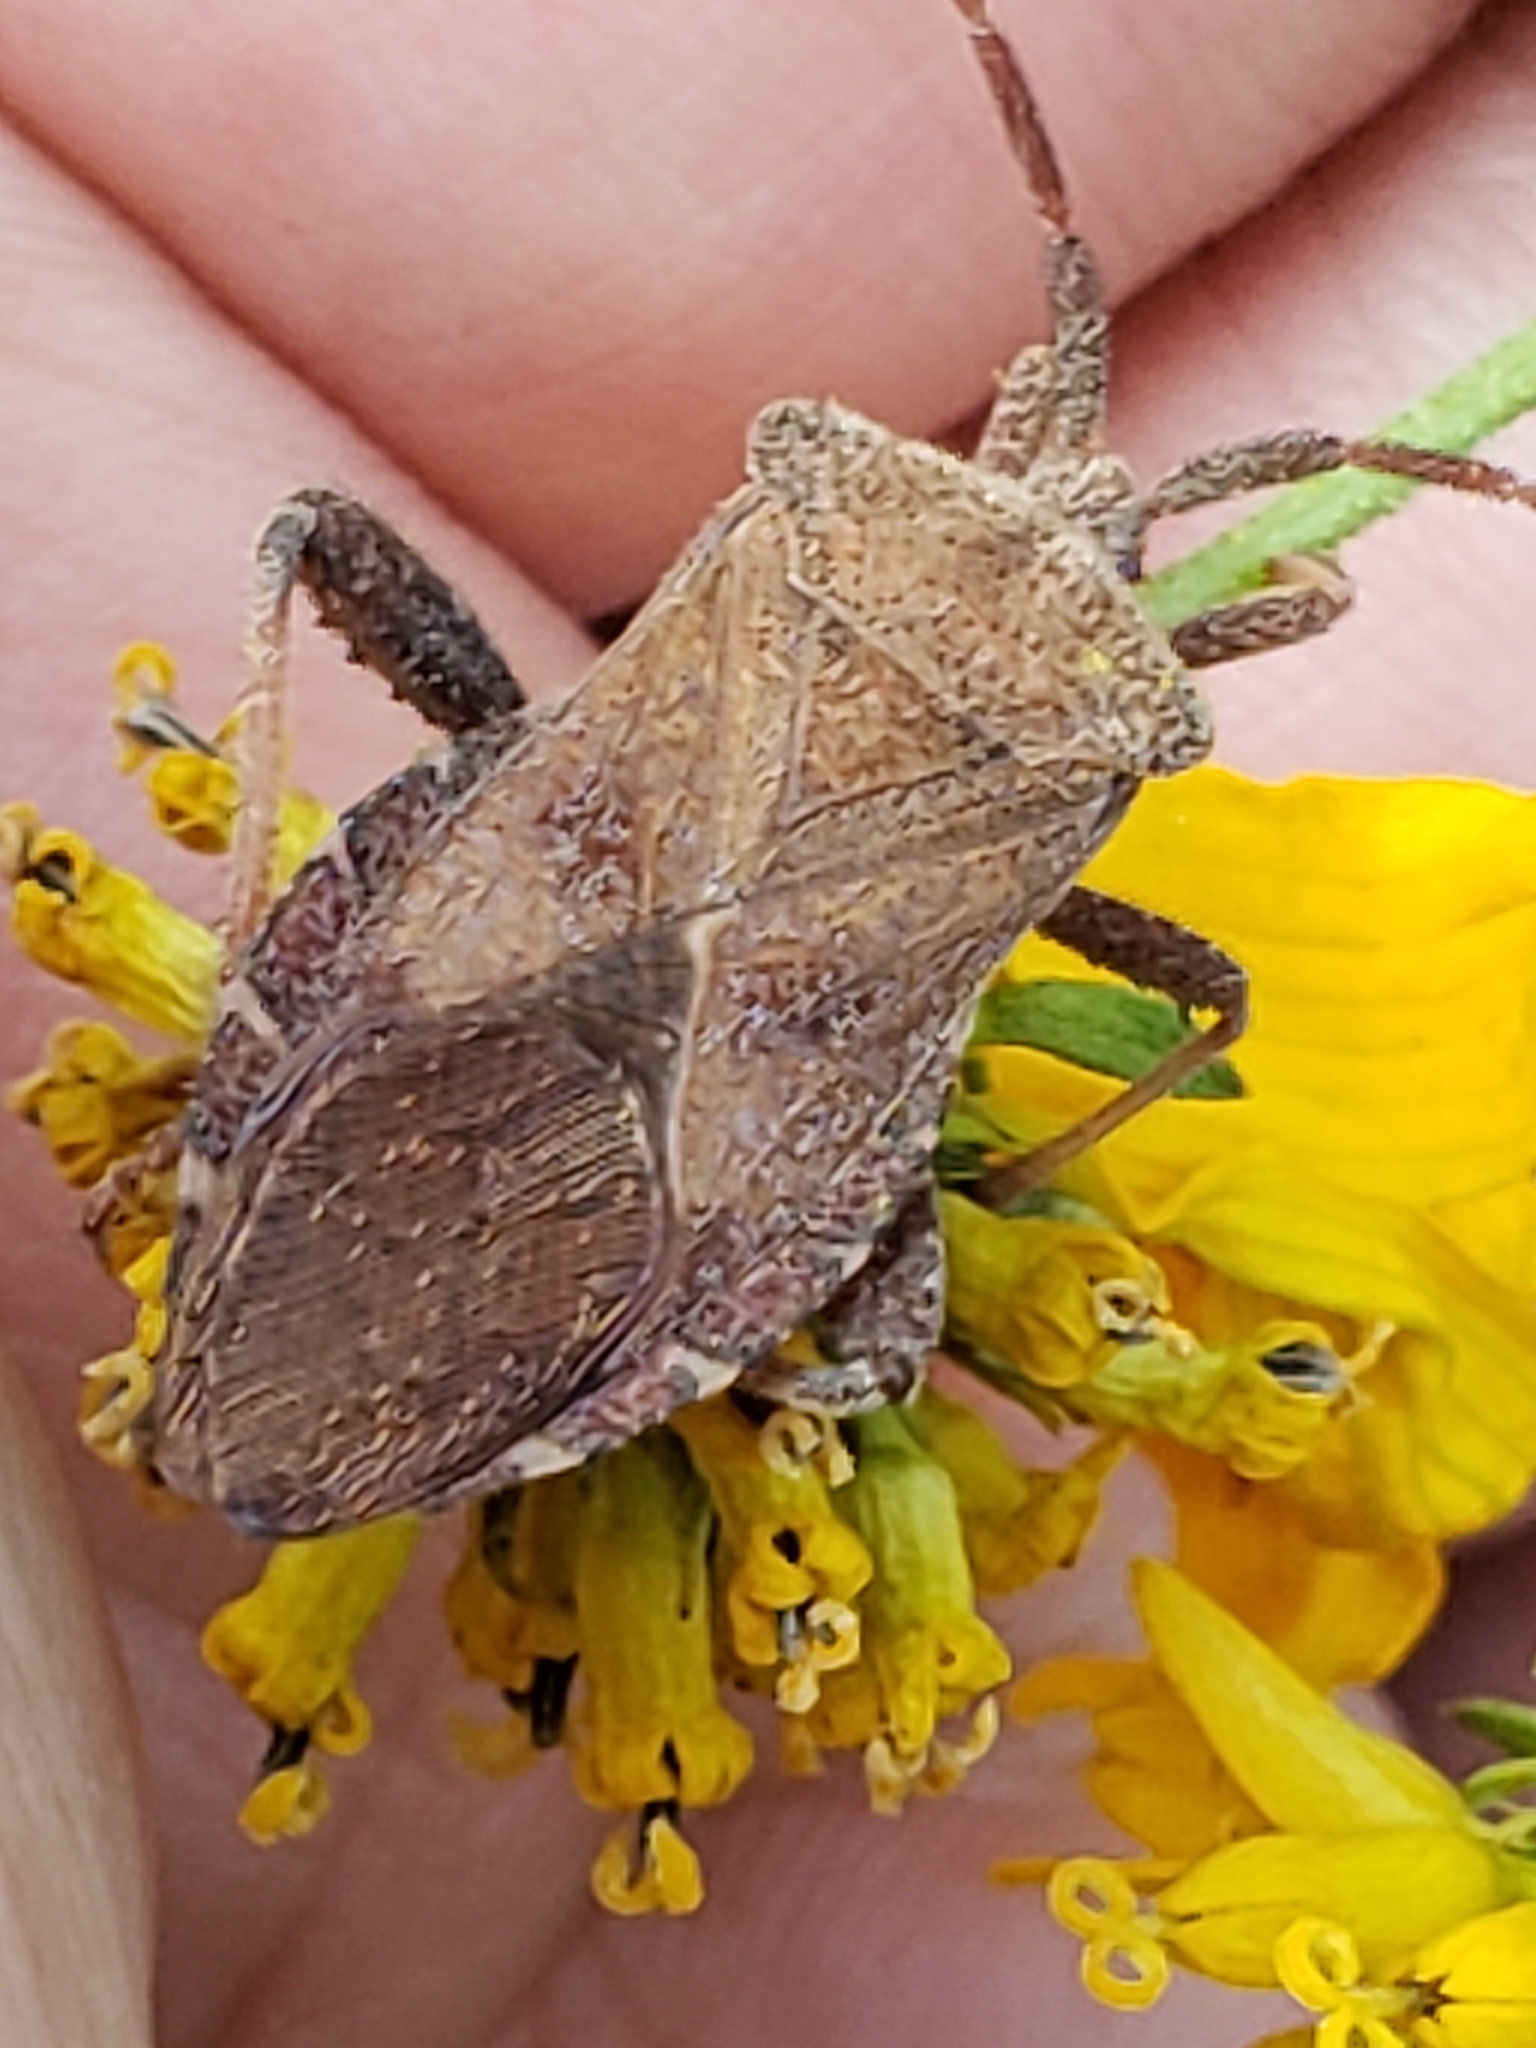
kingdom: Animalia
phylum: Arthropoda
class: Insecta
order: Hemiptera
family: Coreidae
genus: Piezogaster
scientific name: Piezogaster calcarator
